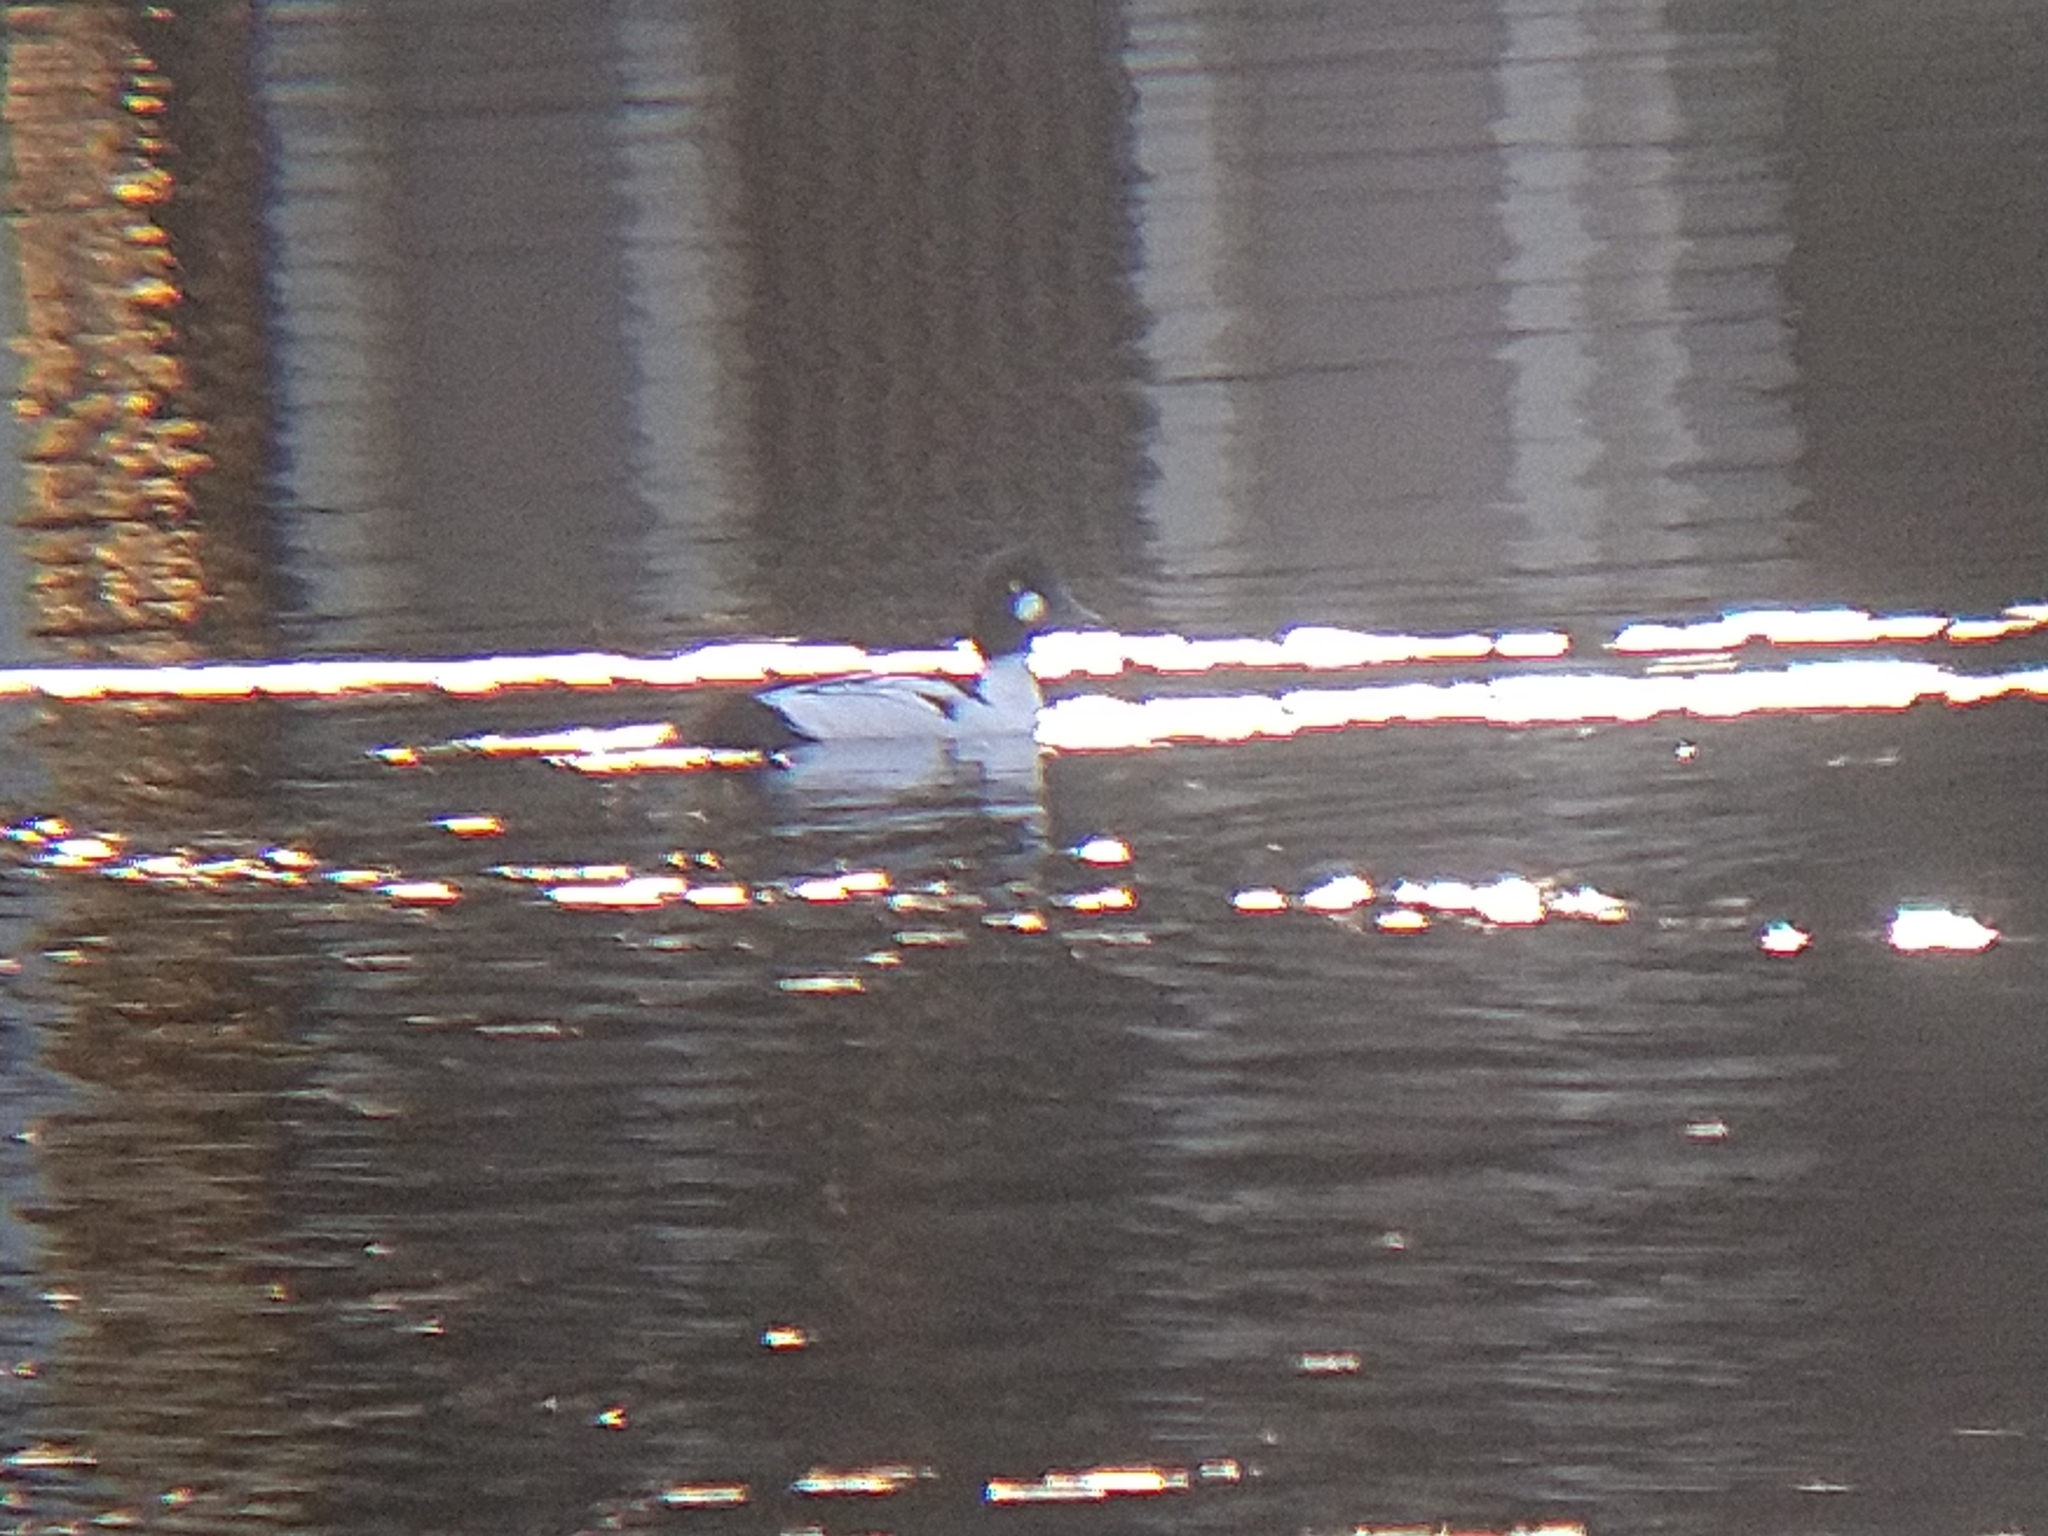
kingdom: Animalia
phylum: Chordata
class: Aves
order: Anseriformes
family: Anatidae
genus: Bucephala
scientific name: Bucephala clangula
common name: Common goldeneye
